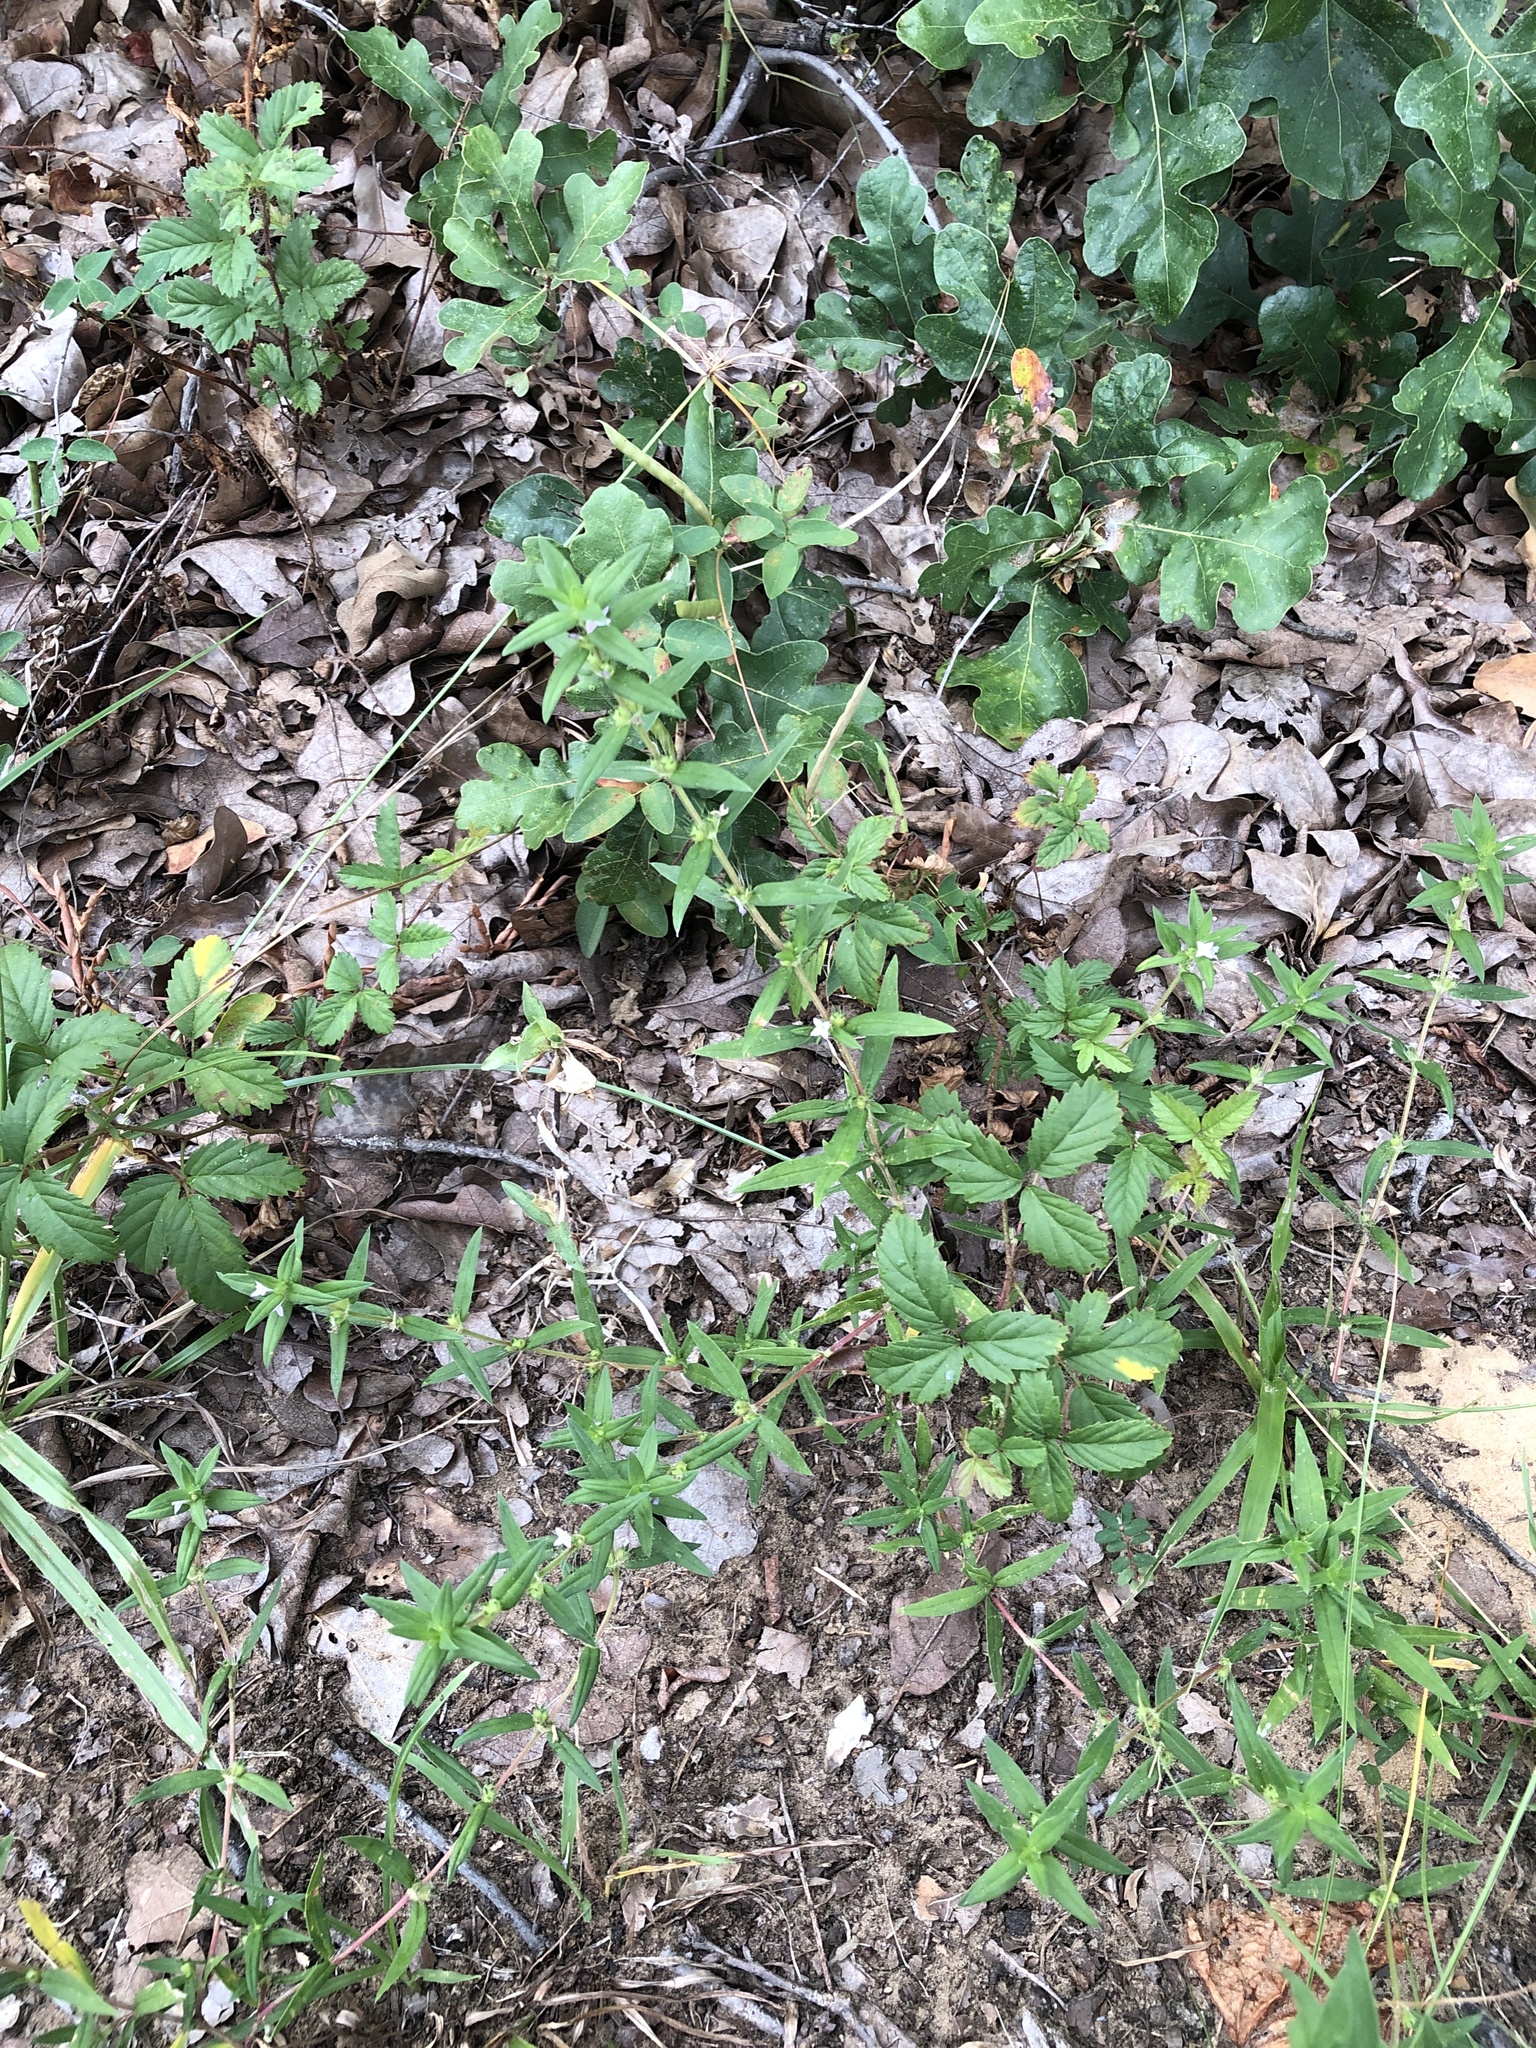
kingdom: Plantae
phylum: Tracheophyta
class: Magnoliopsida
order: Gentianales
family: Rubiaceae
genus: Hexasepalum
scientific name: Hexasepalum teres
